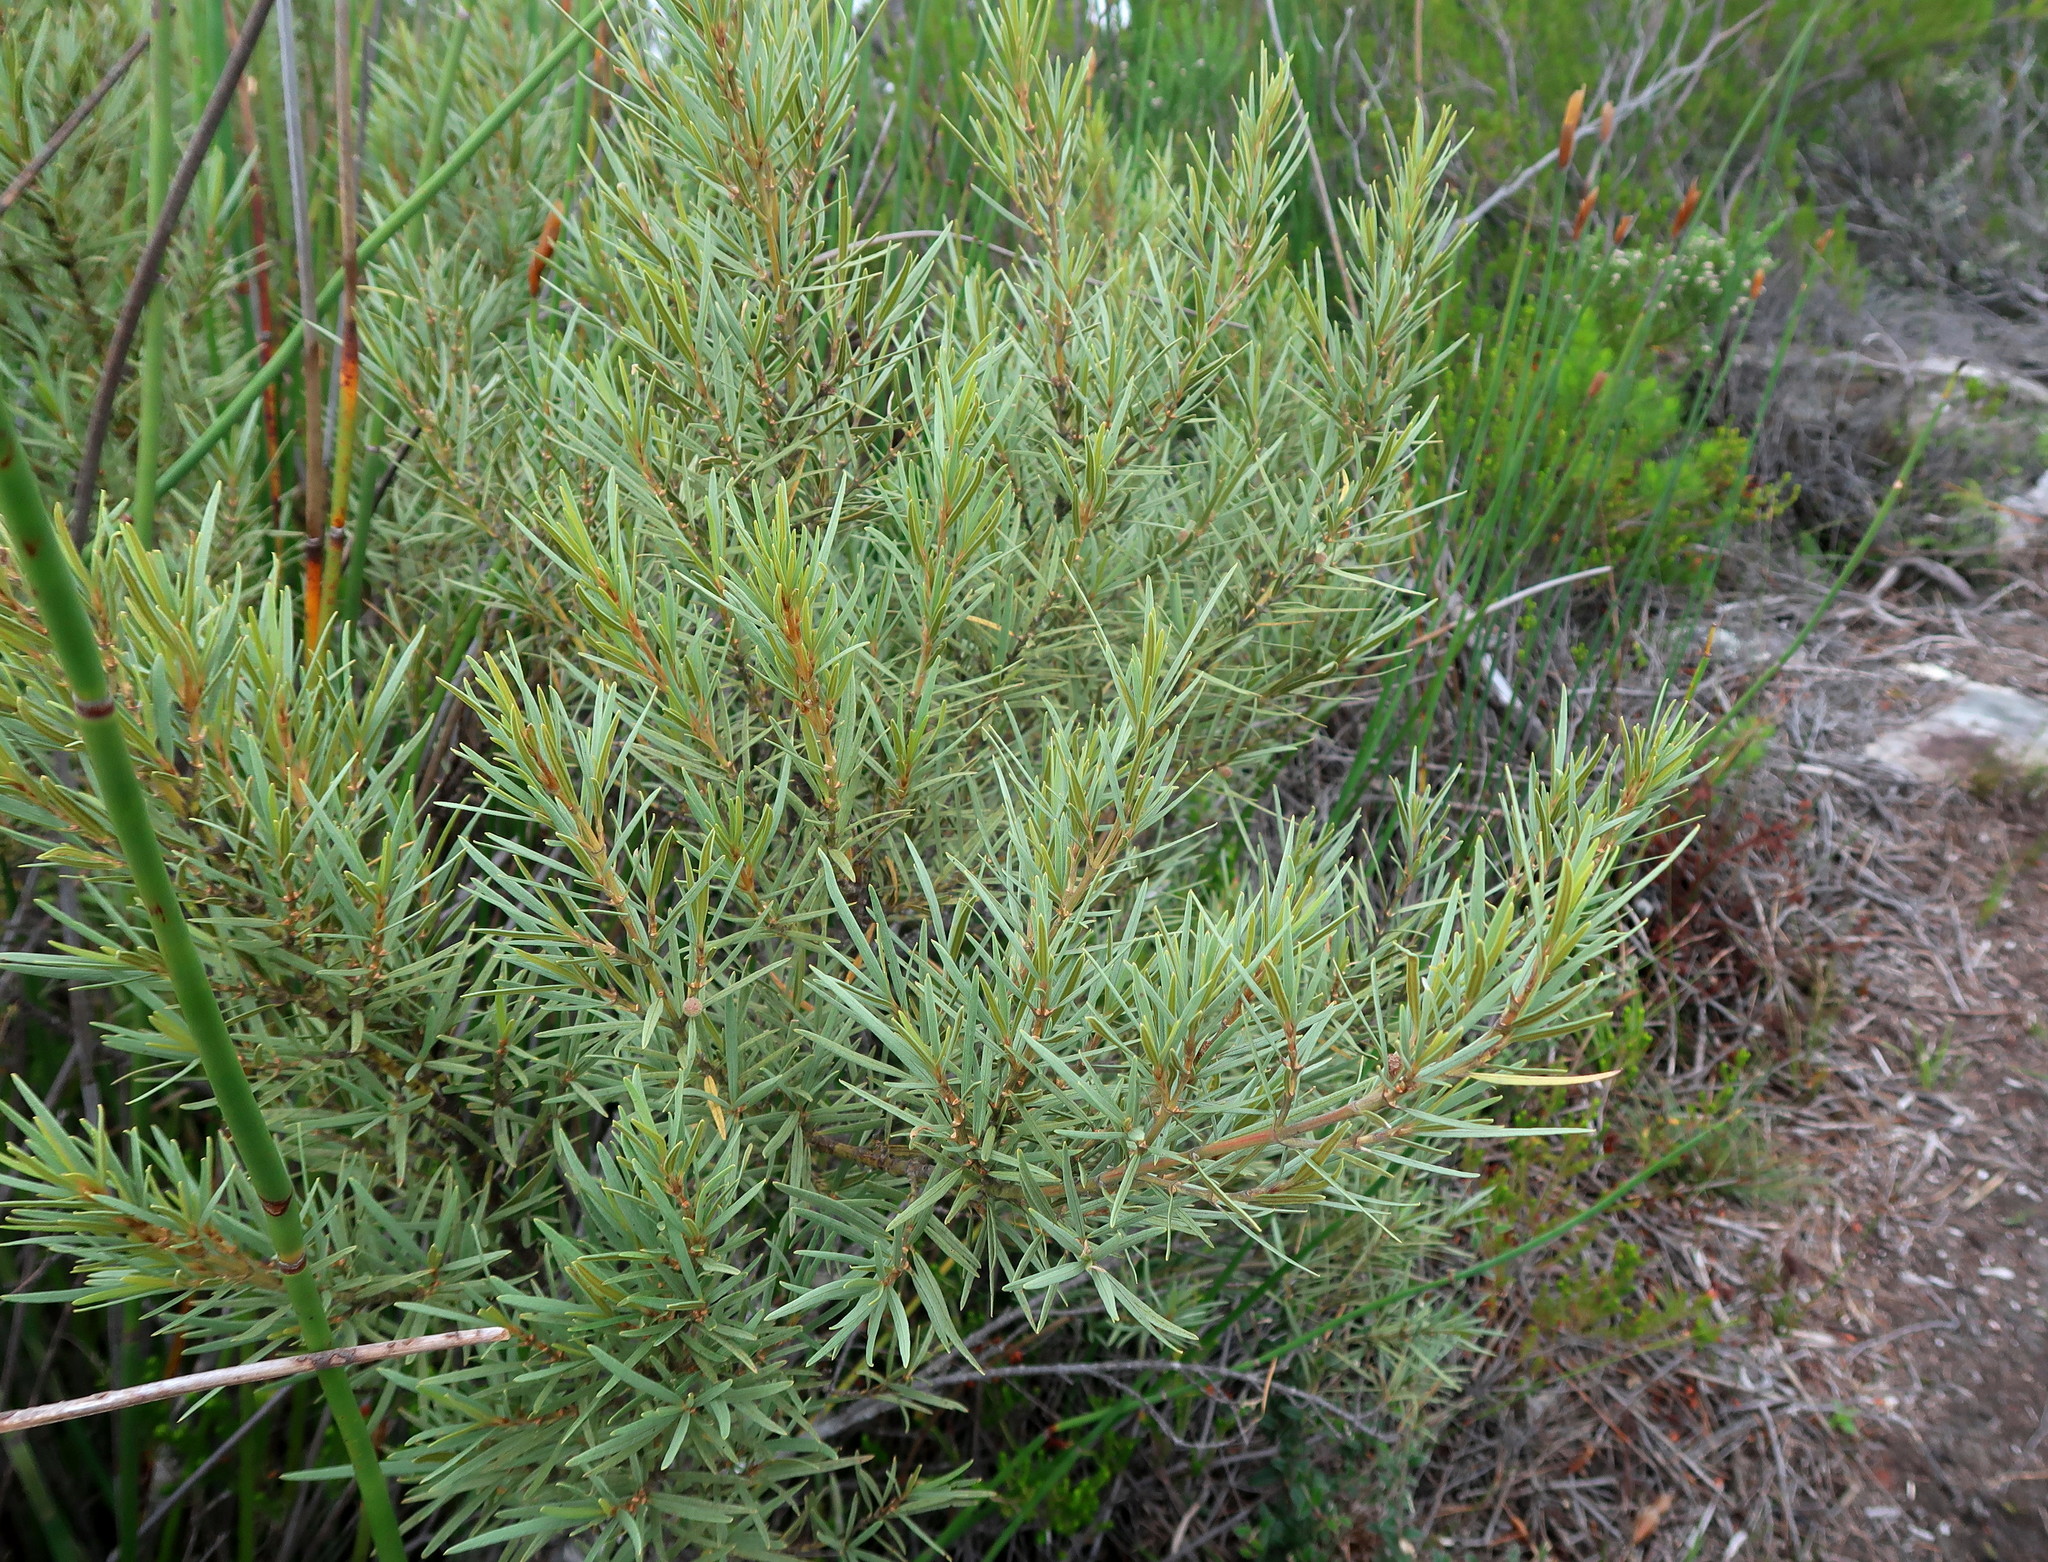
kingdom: Plantae
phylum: Tracheophyta
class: Magnoliopsida
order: Cornales
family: Grubbiaceae
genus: Grubbia
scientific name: Grubbia tomentosa
